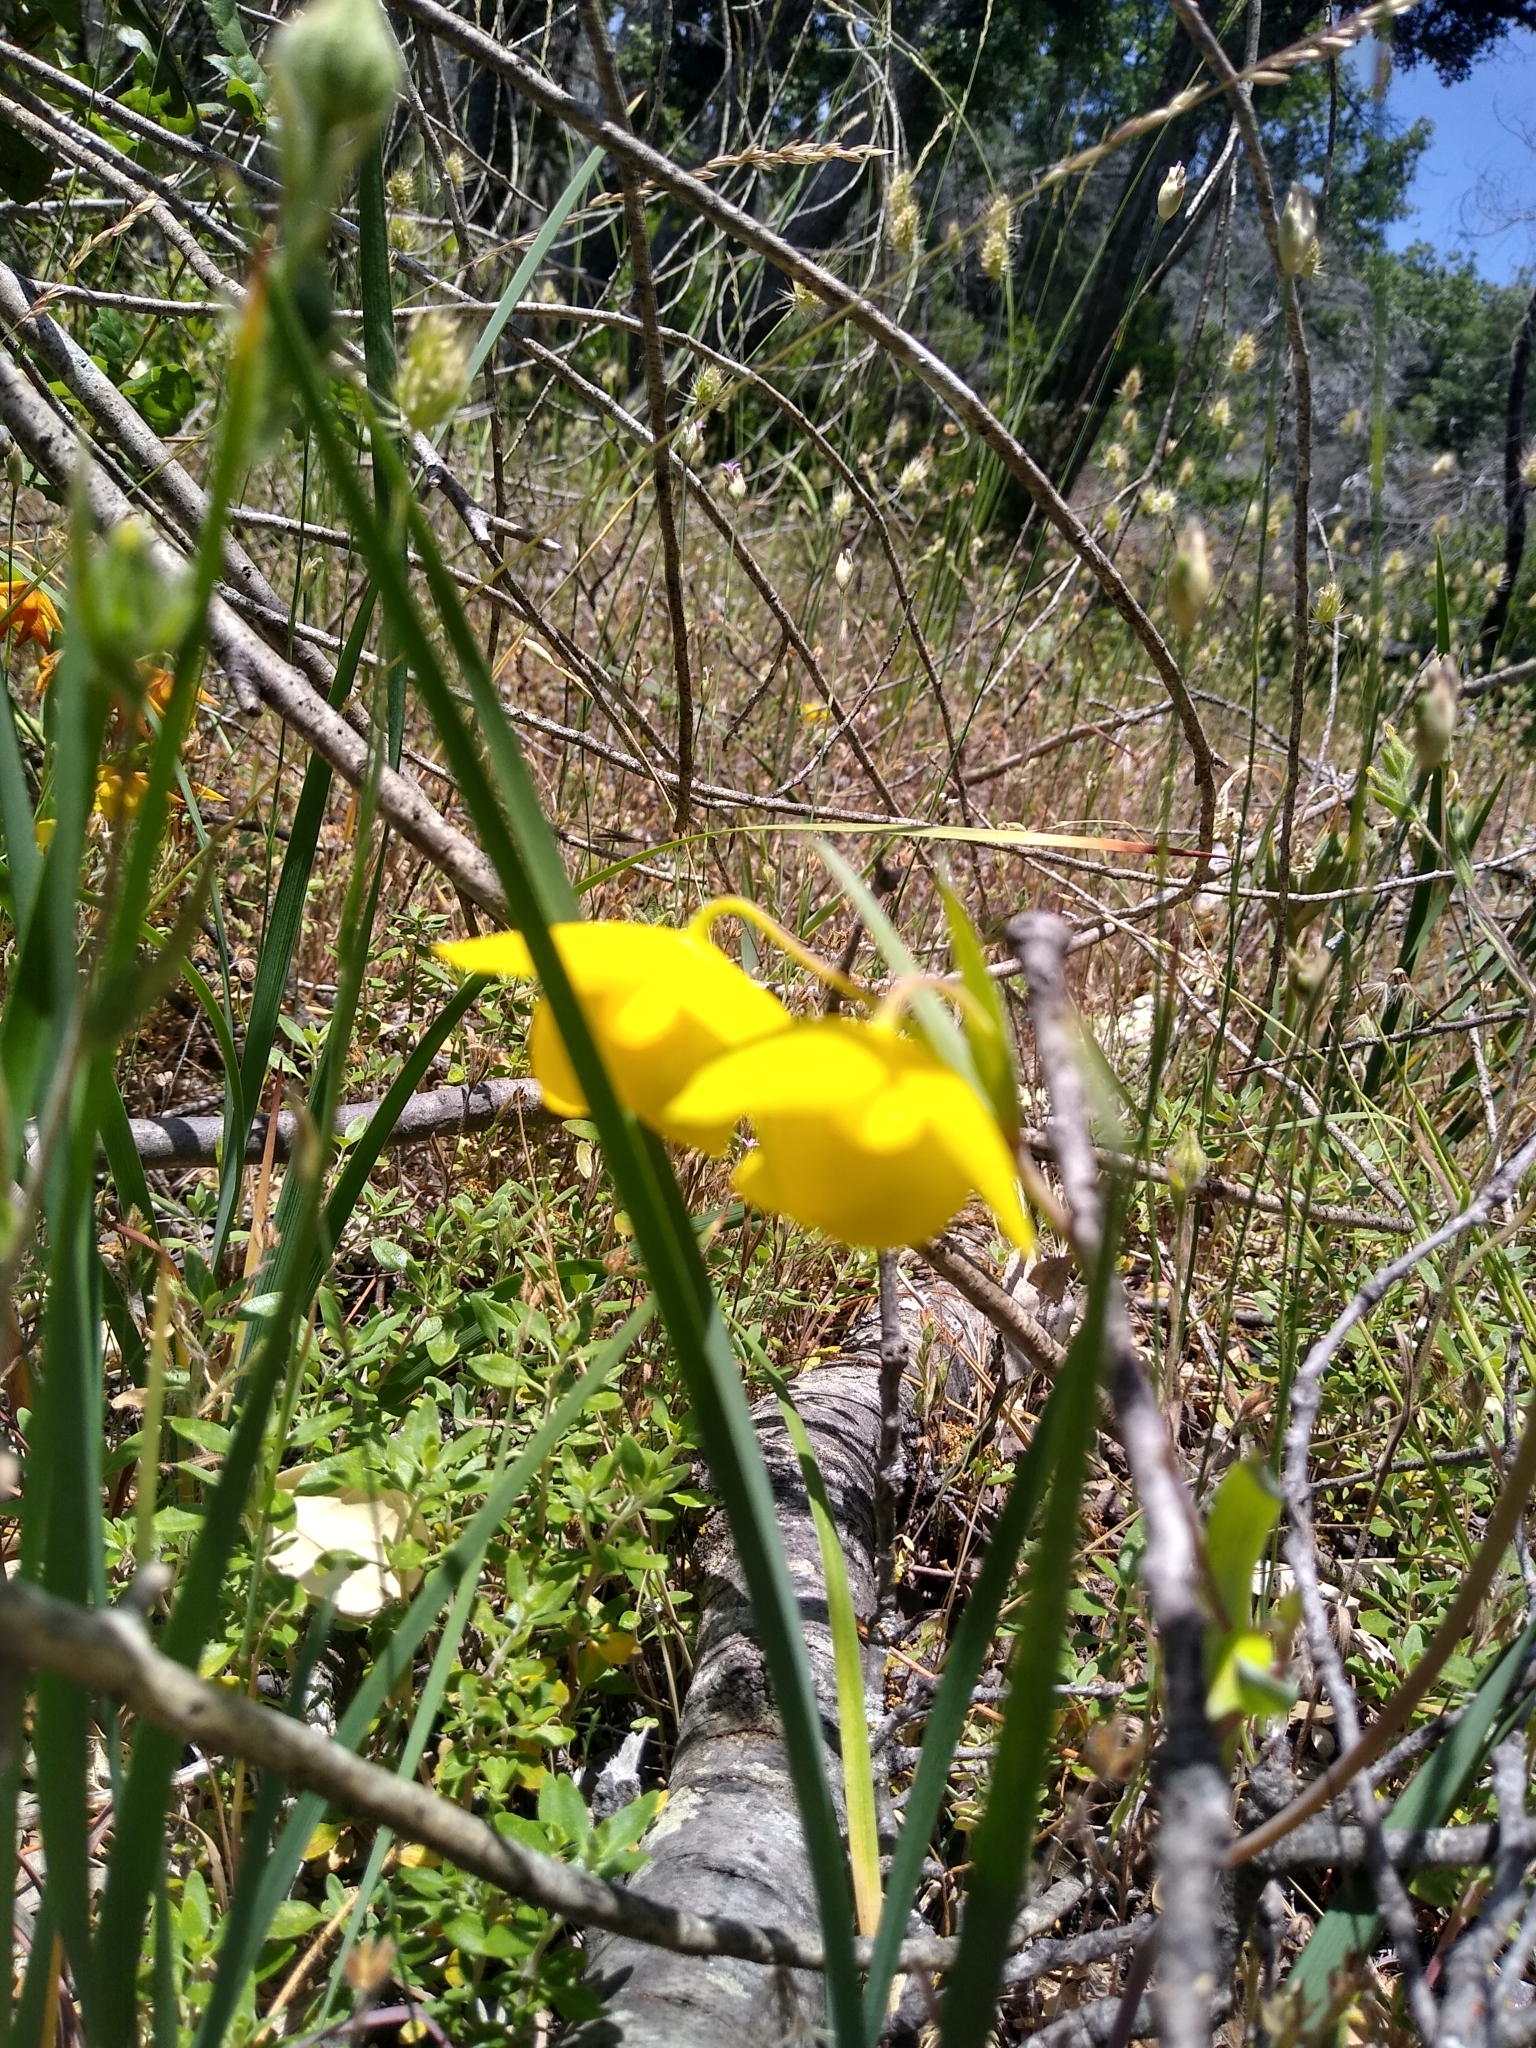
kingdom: Plantae
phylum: Tracheophyta
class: Liliopsida
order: Liliales
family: Liliaceae
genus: Calochortus
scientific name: Calochortus amabilis
